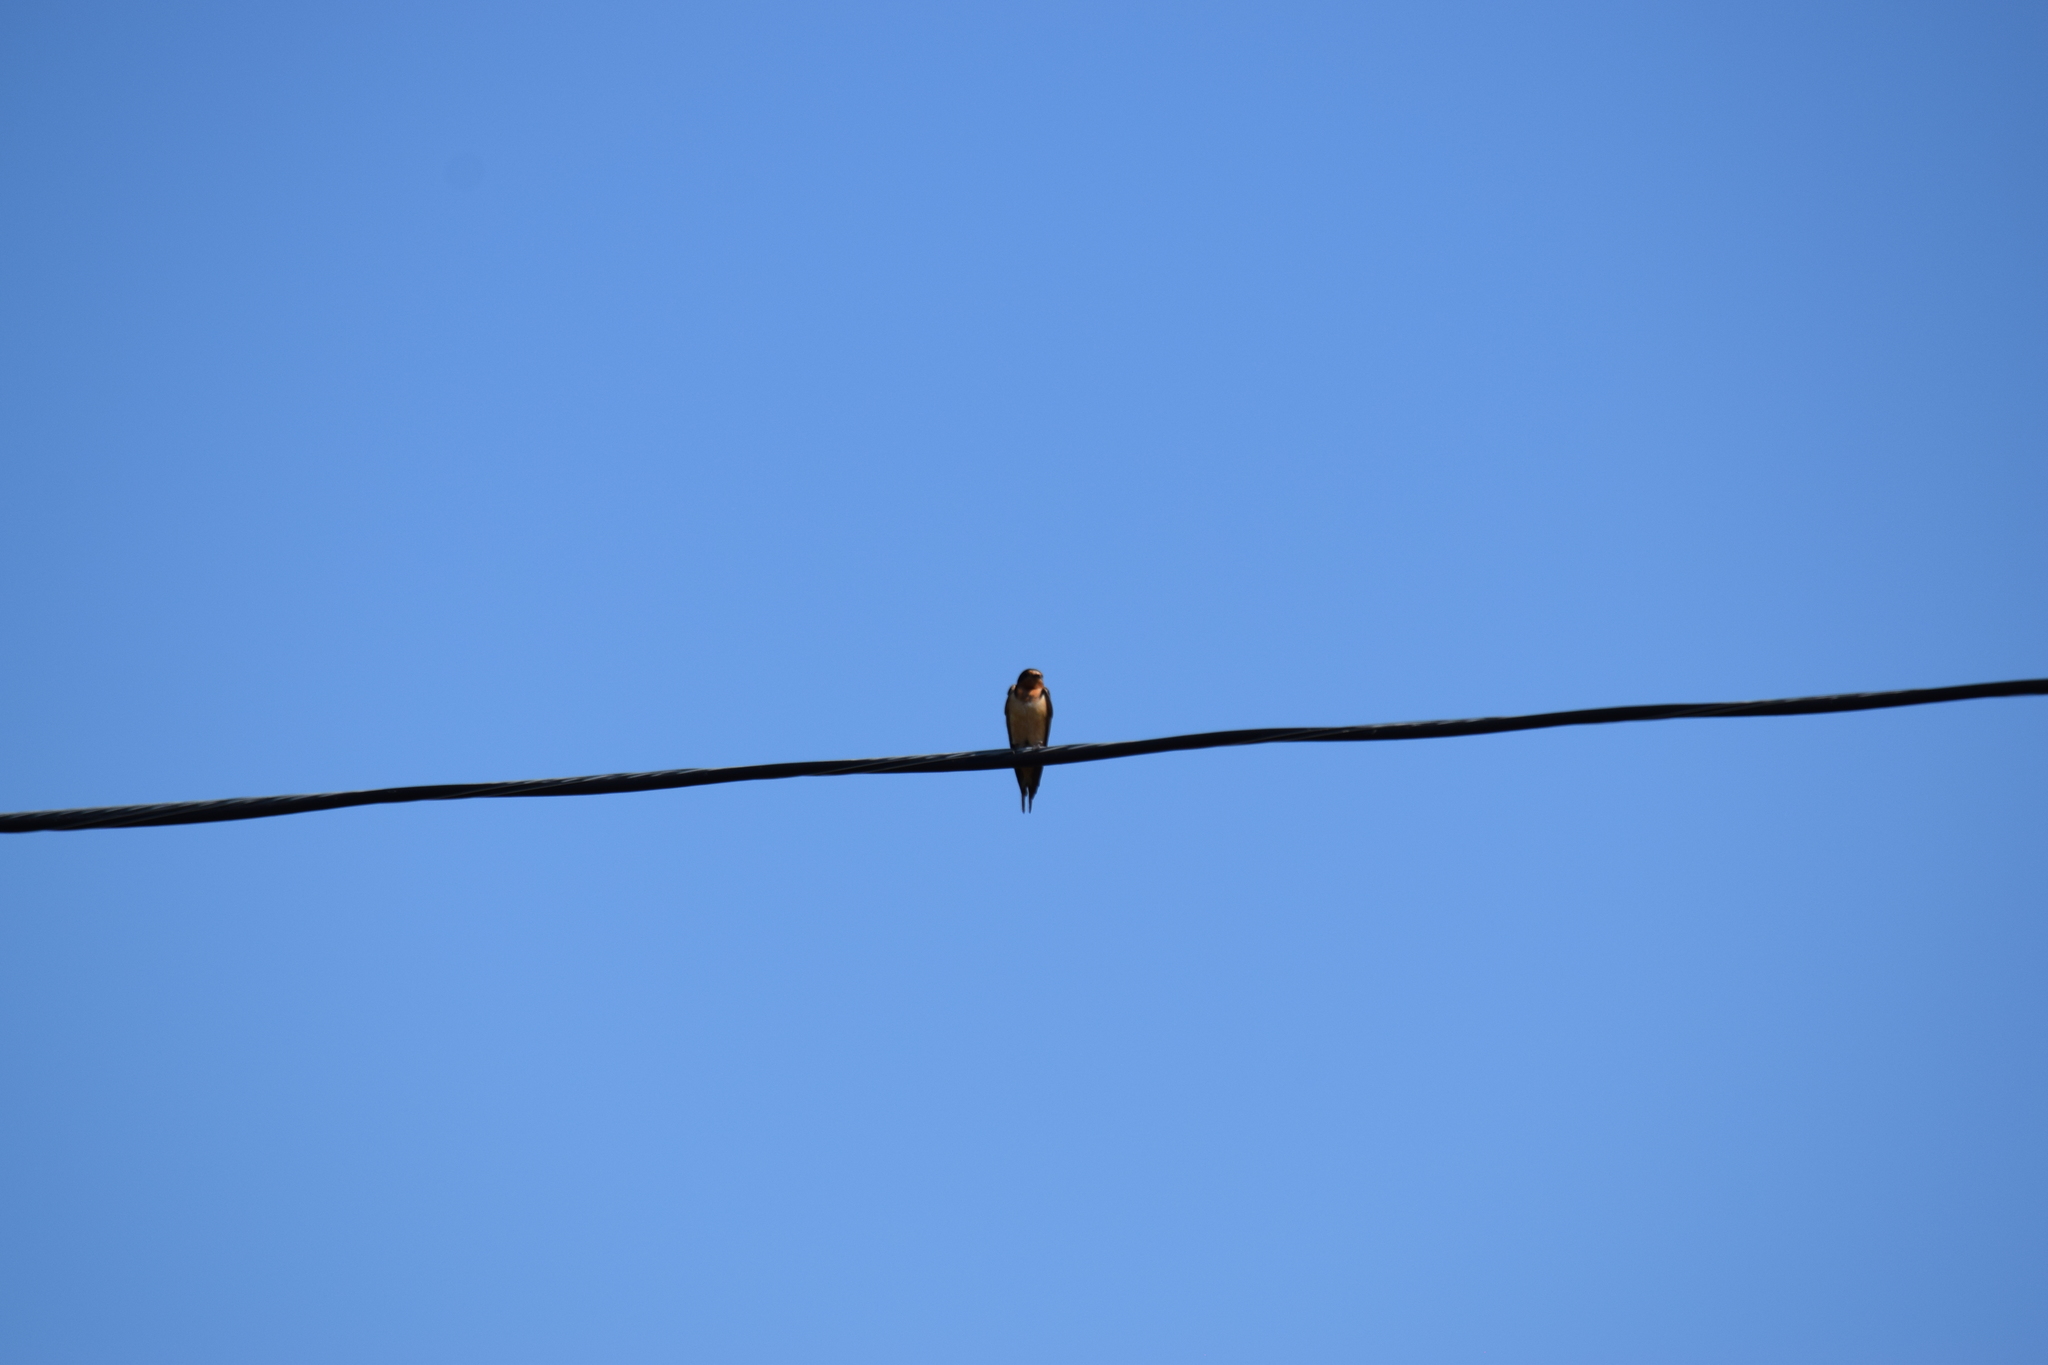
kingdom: Animalia
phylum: Chordata
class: Aves
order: Passeriformes
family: Hirundinidae
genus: Hirundo
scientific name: Hirundo rustica
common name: Barn swallow
